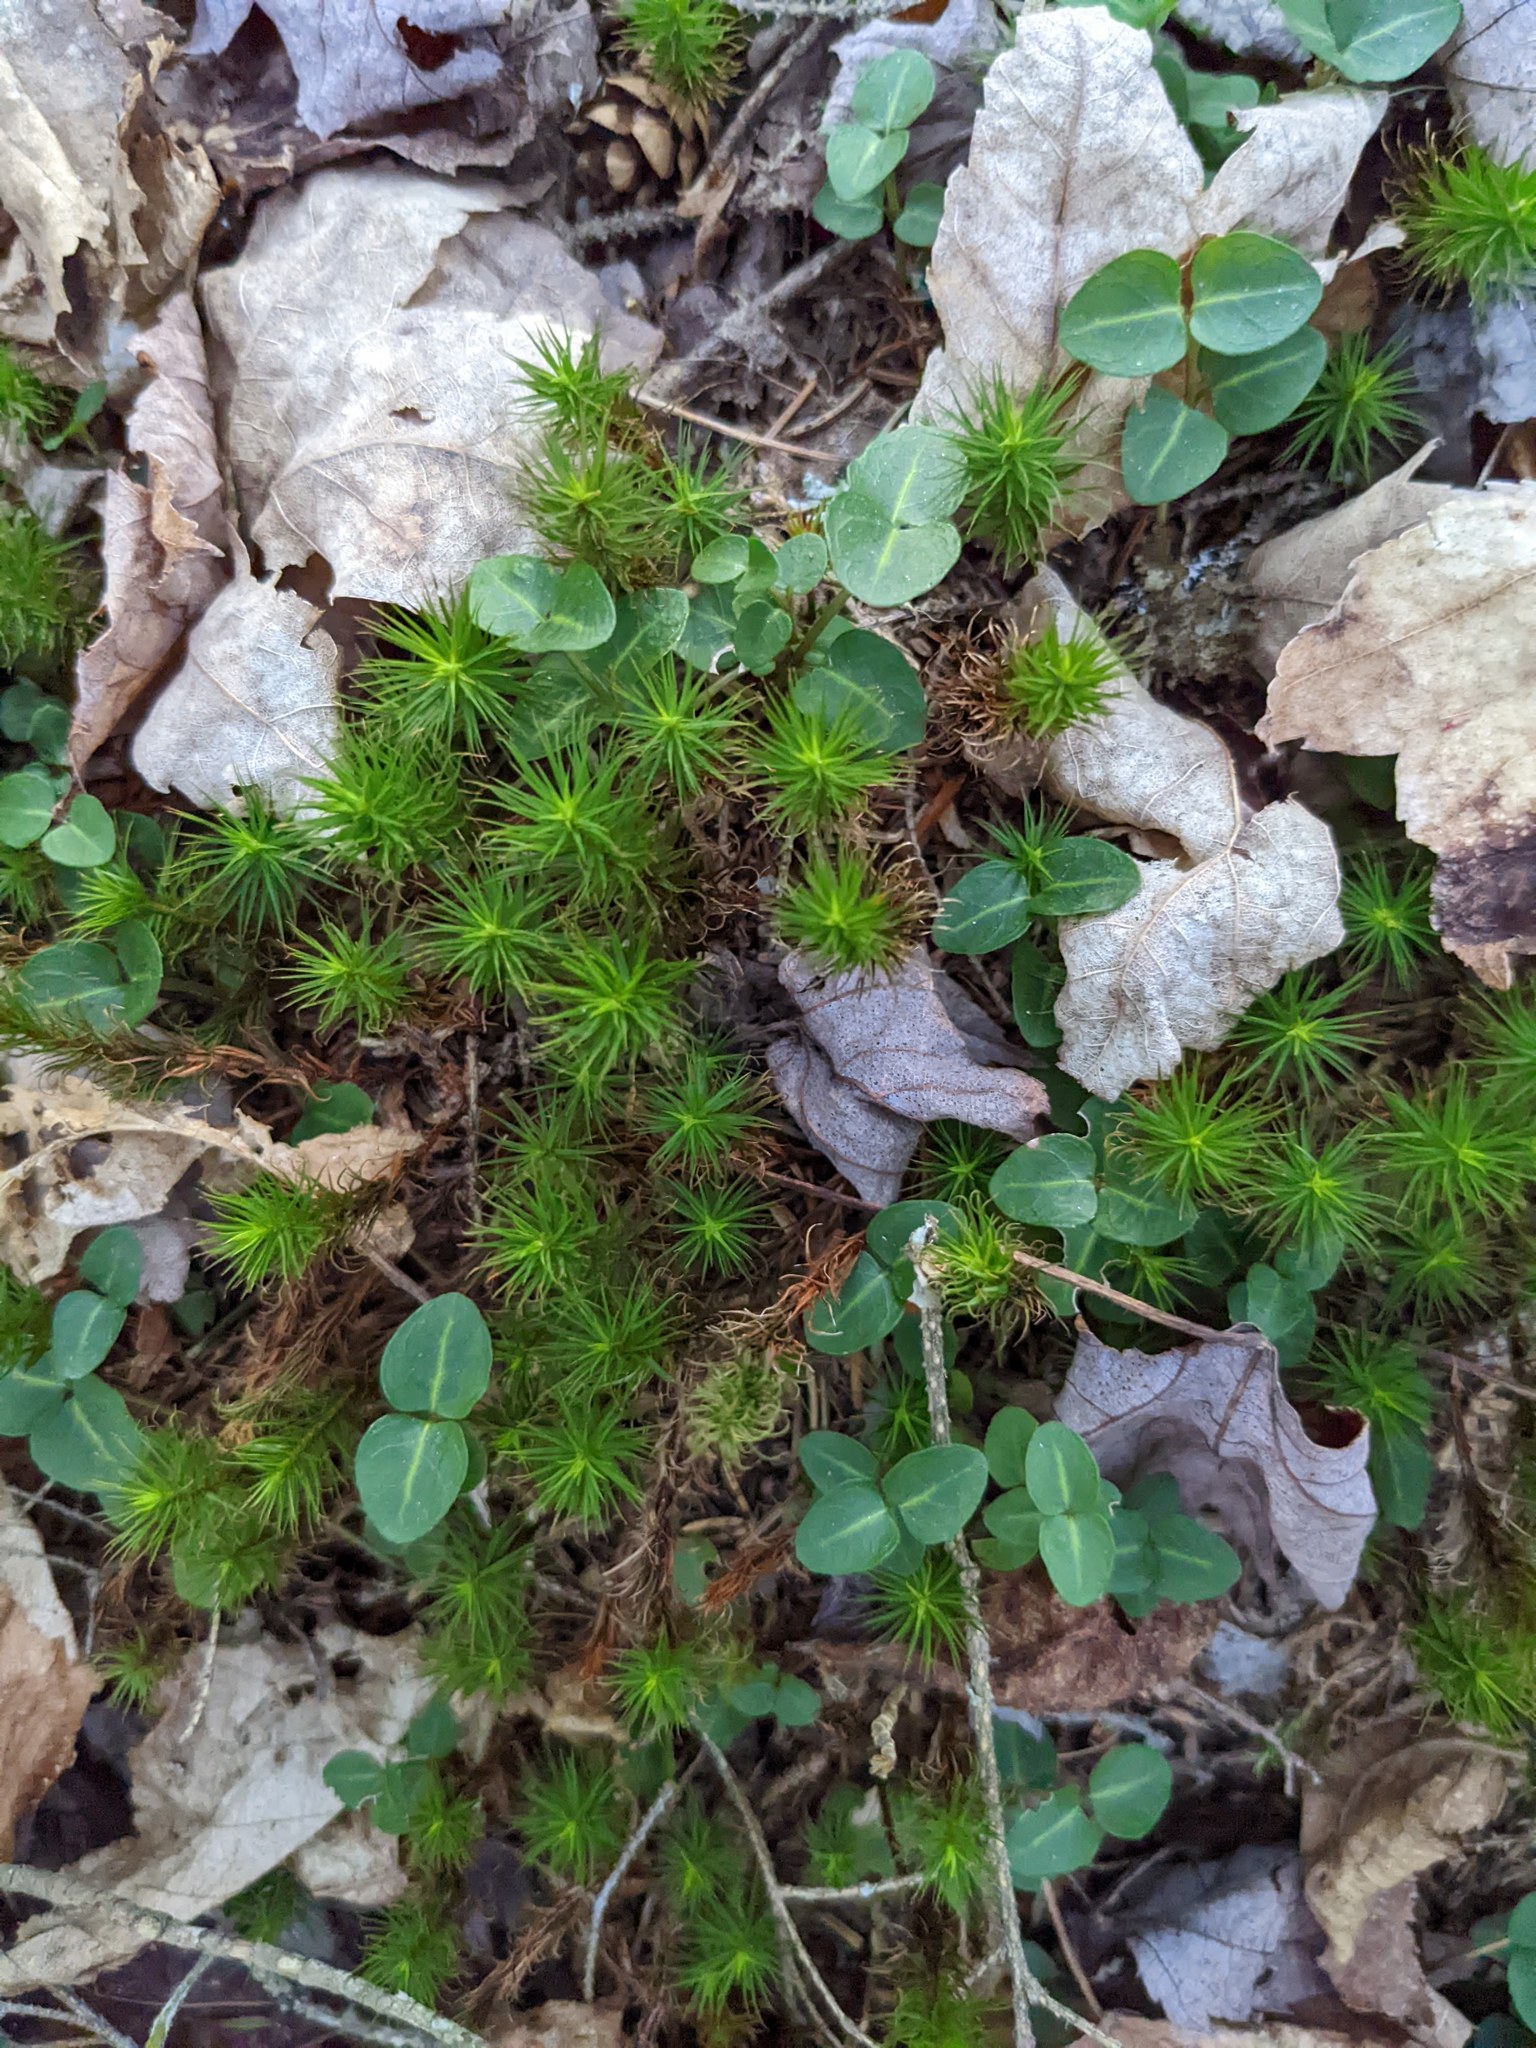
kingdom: Plantae
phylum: Tracheophyta
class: Magnoliopsida
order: Gentianales
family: Rubiaceae
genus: Mitchella
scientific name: Mitchella repens
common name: Partridge-berry
